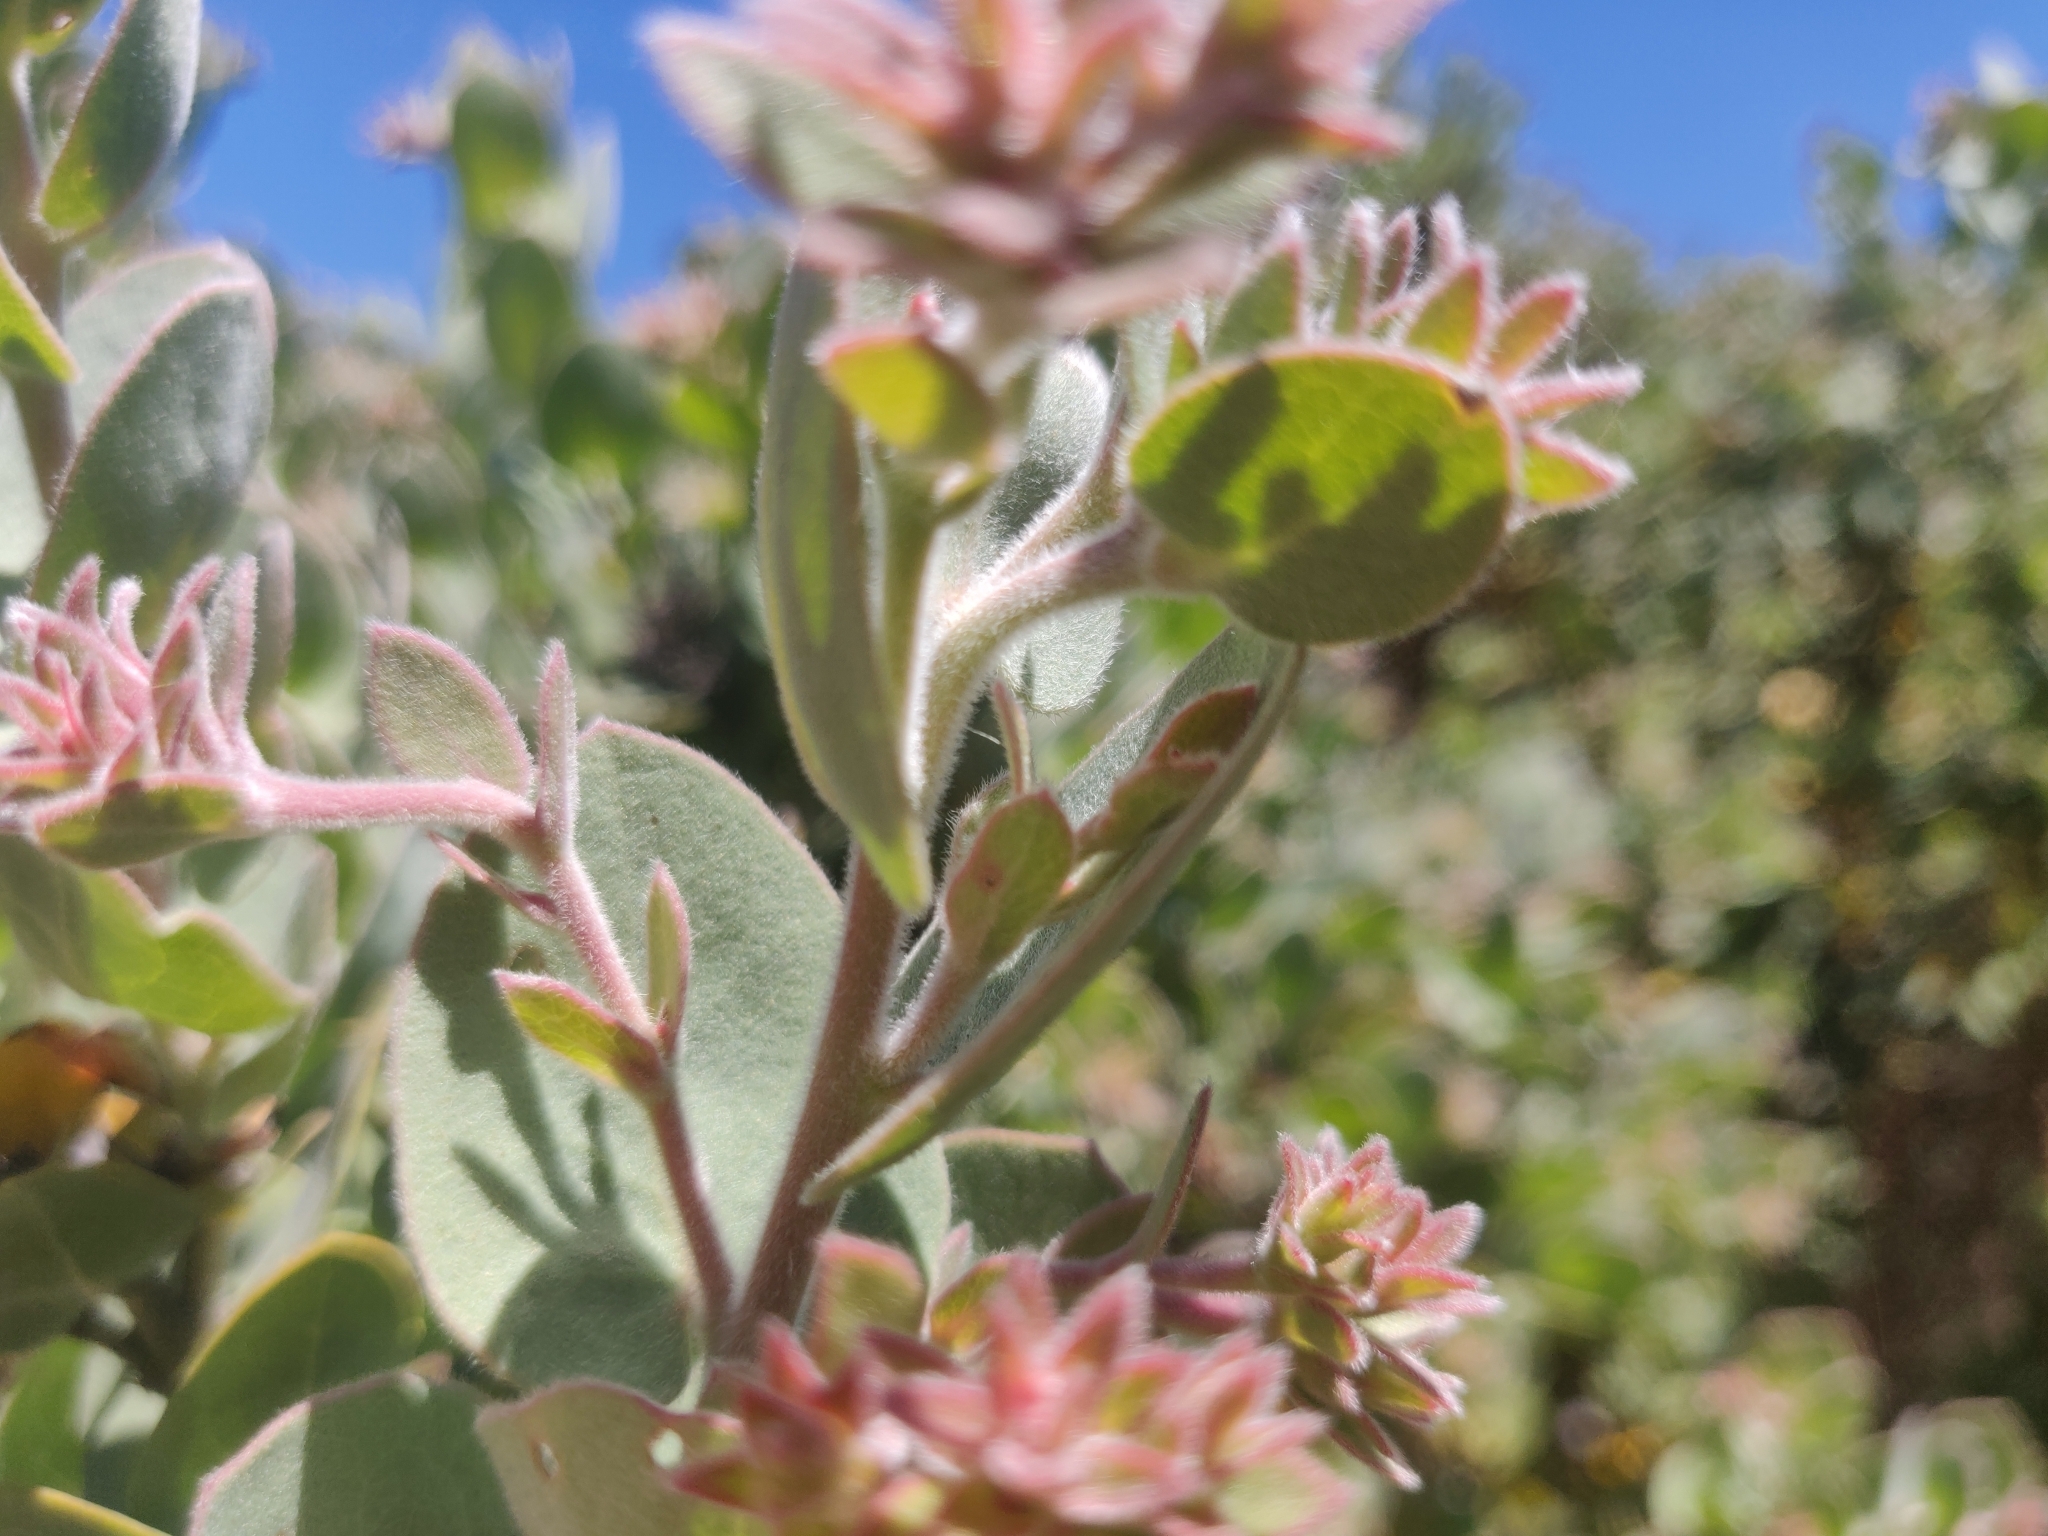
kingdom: Plantae
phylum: Tracheophyta
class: Magnoliopsida
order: Ericales
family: Ericaceae
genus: Arctostaphylos
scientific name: Arctostaphylos auriculata
